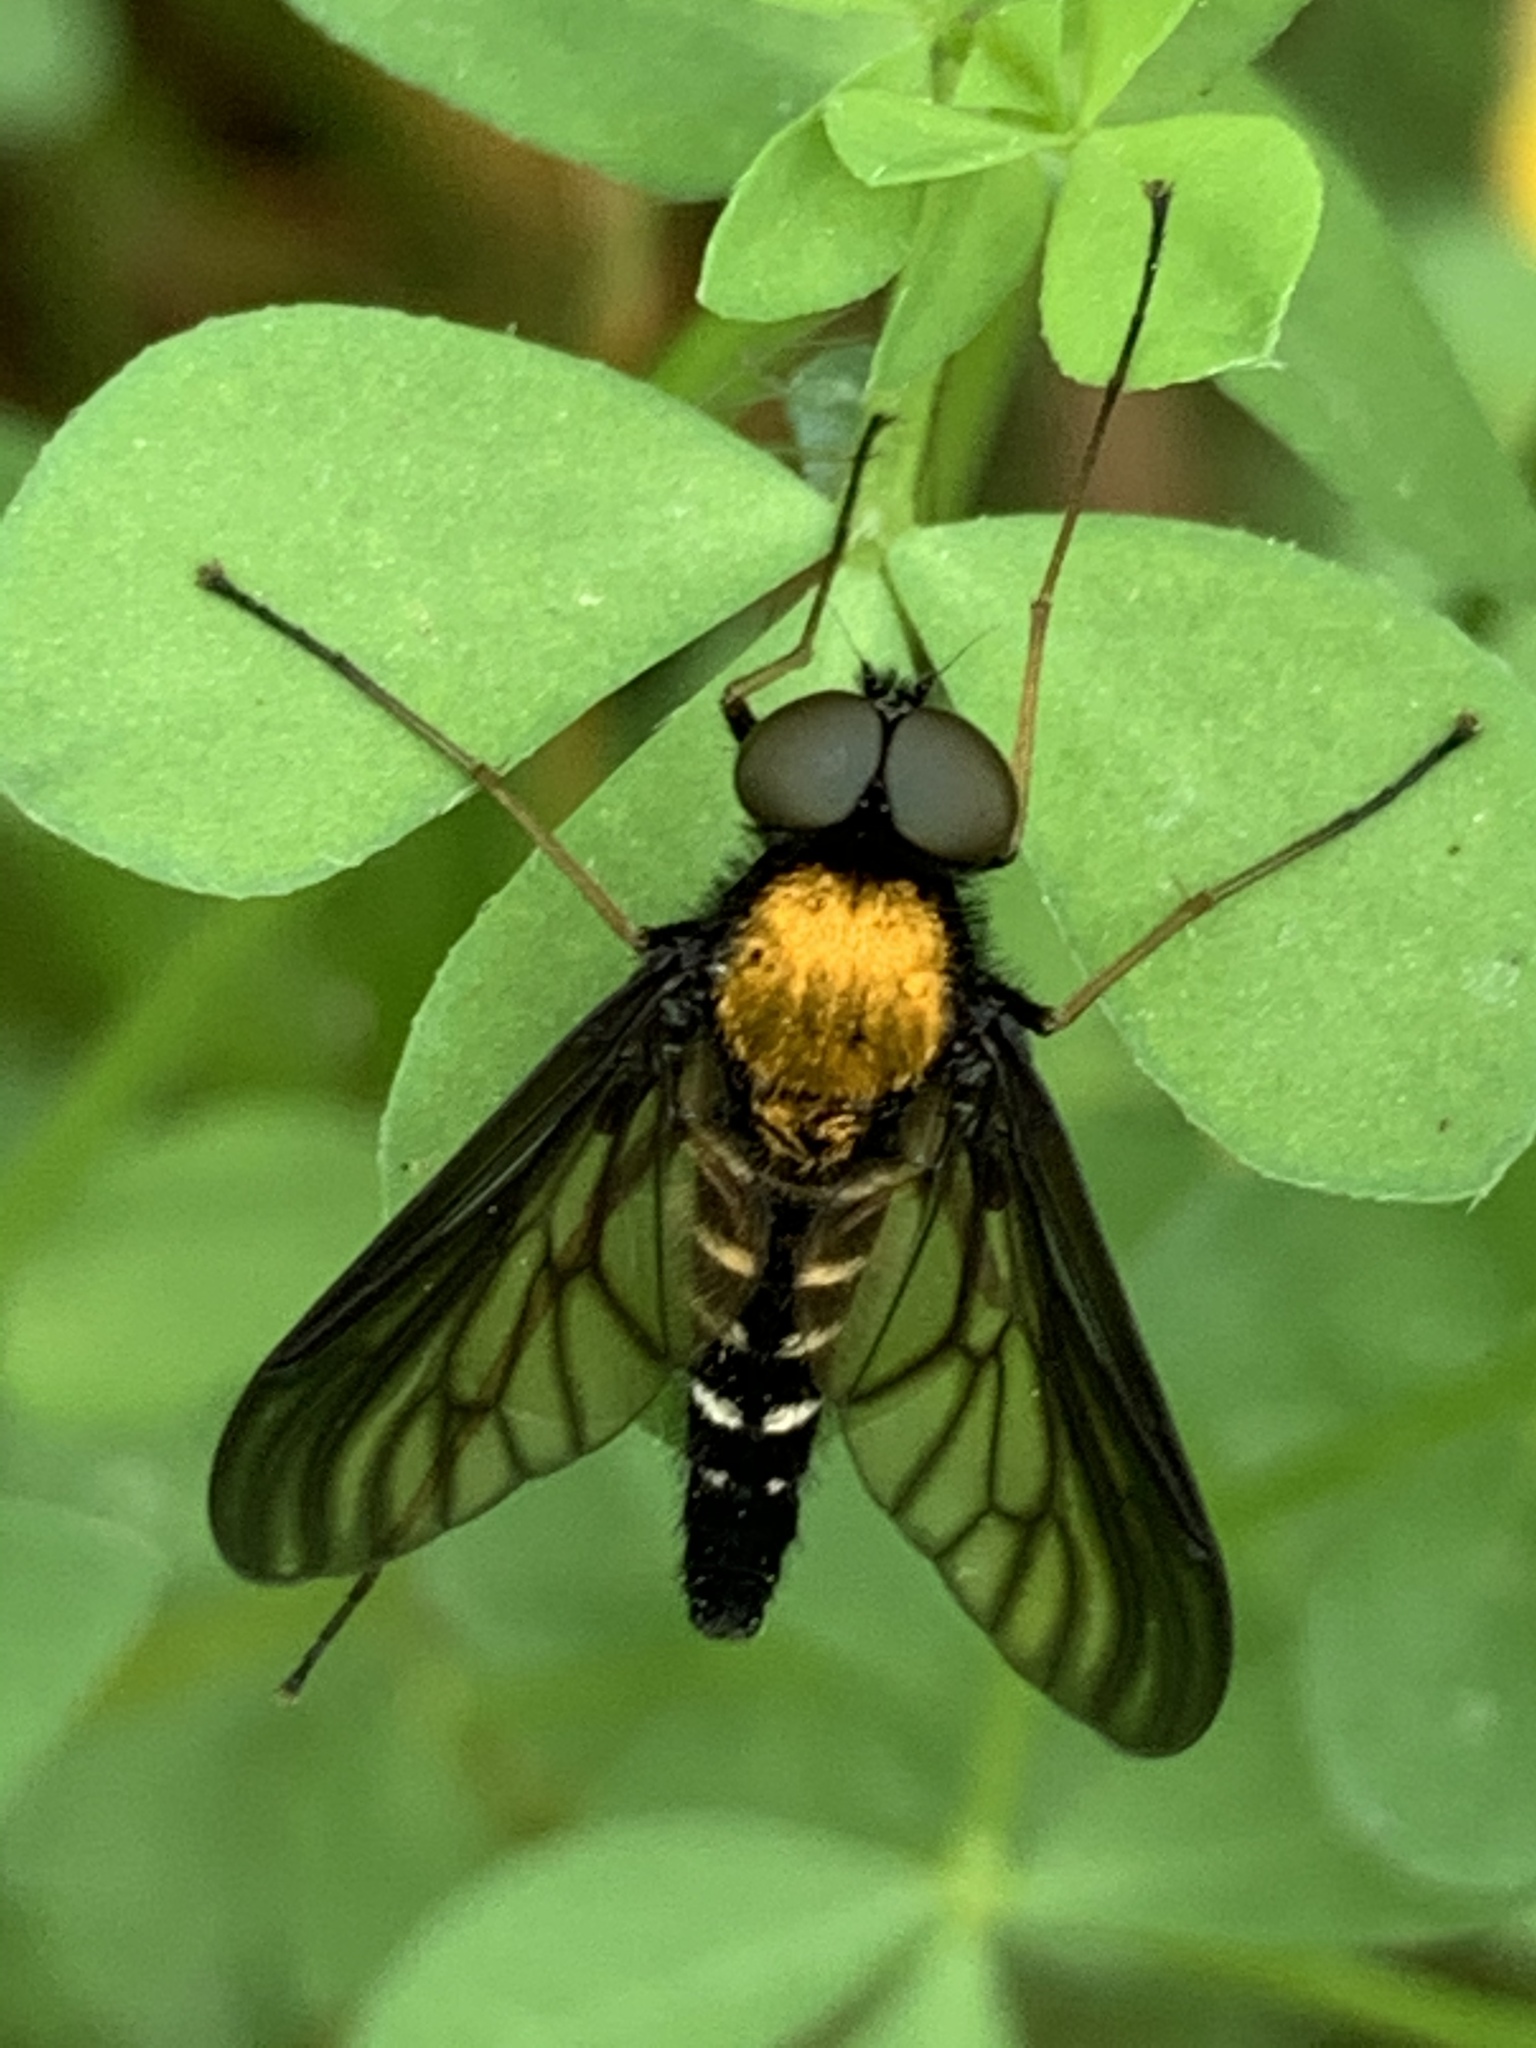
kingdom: Animalia
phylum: Arthropoda
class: Insecta
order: Diptera
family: Rhagionidae
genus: Chrysopilus
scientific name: Chrysopilus thoracicus
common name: Golden-backed snipe fly
